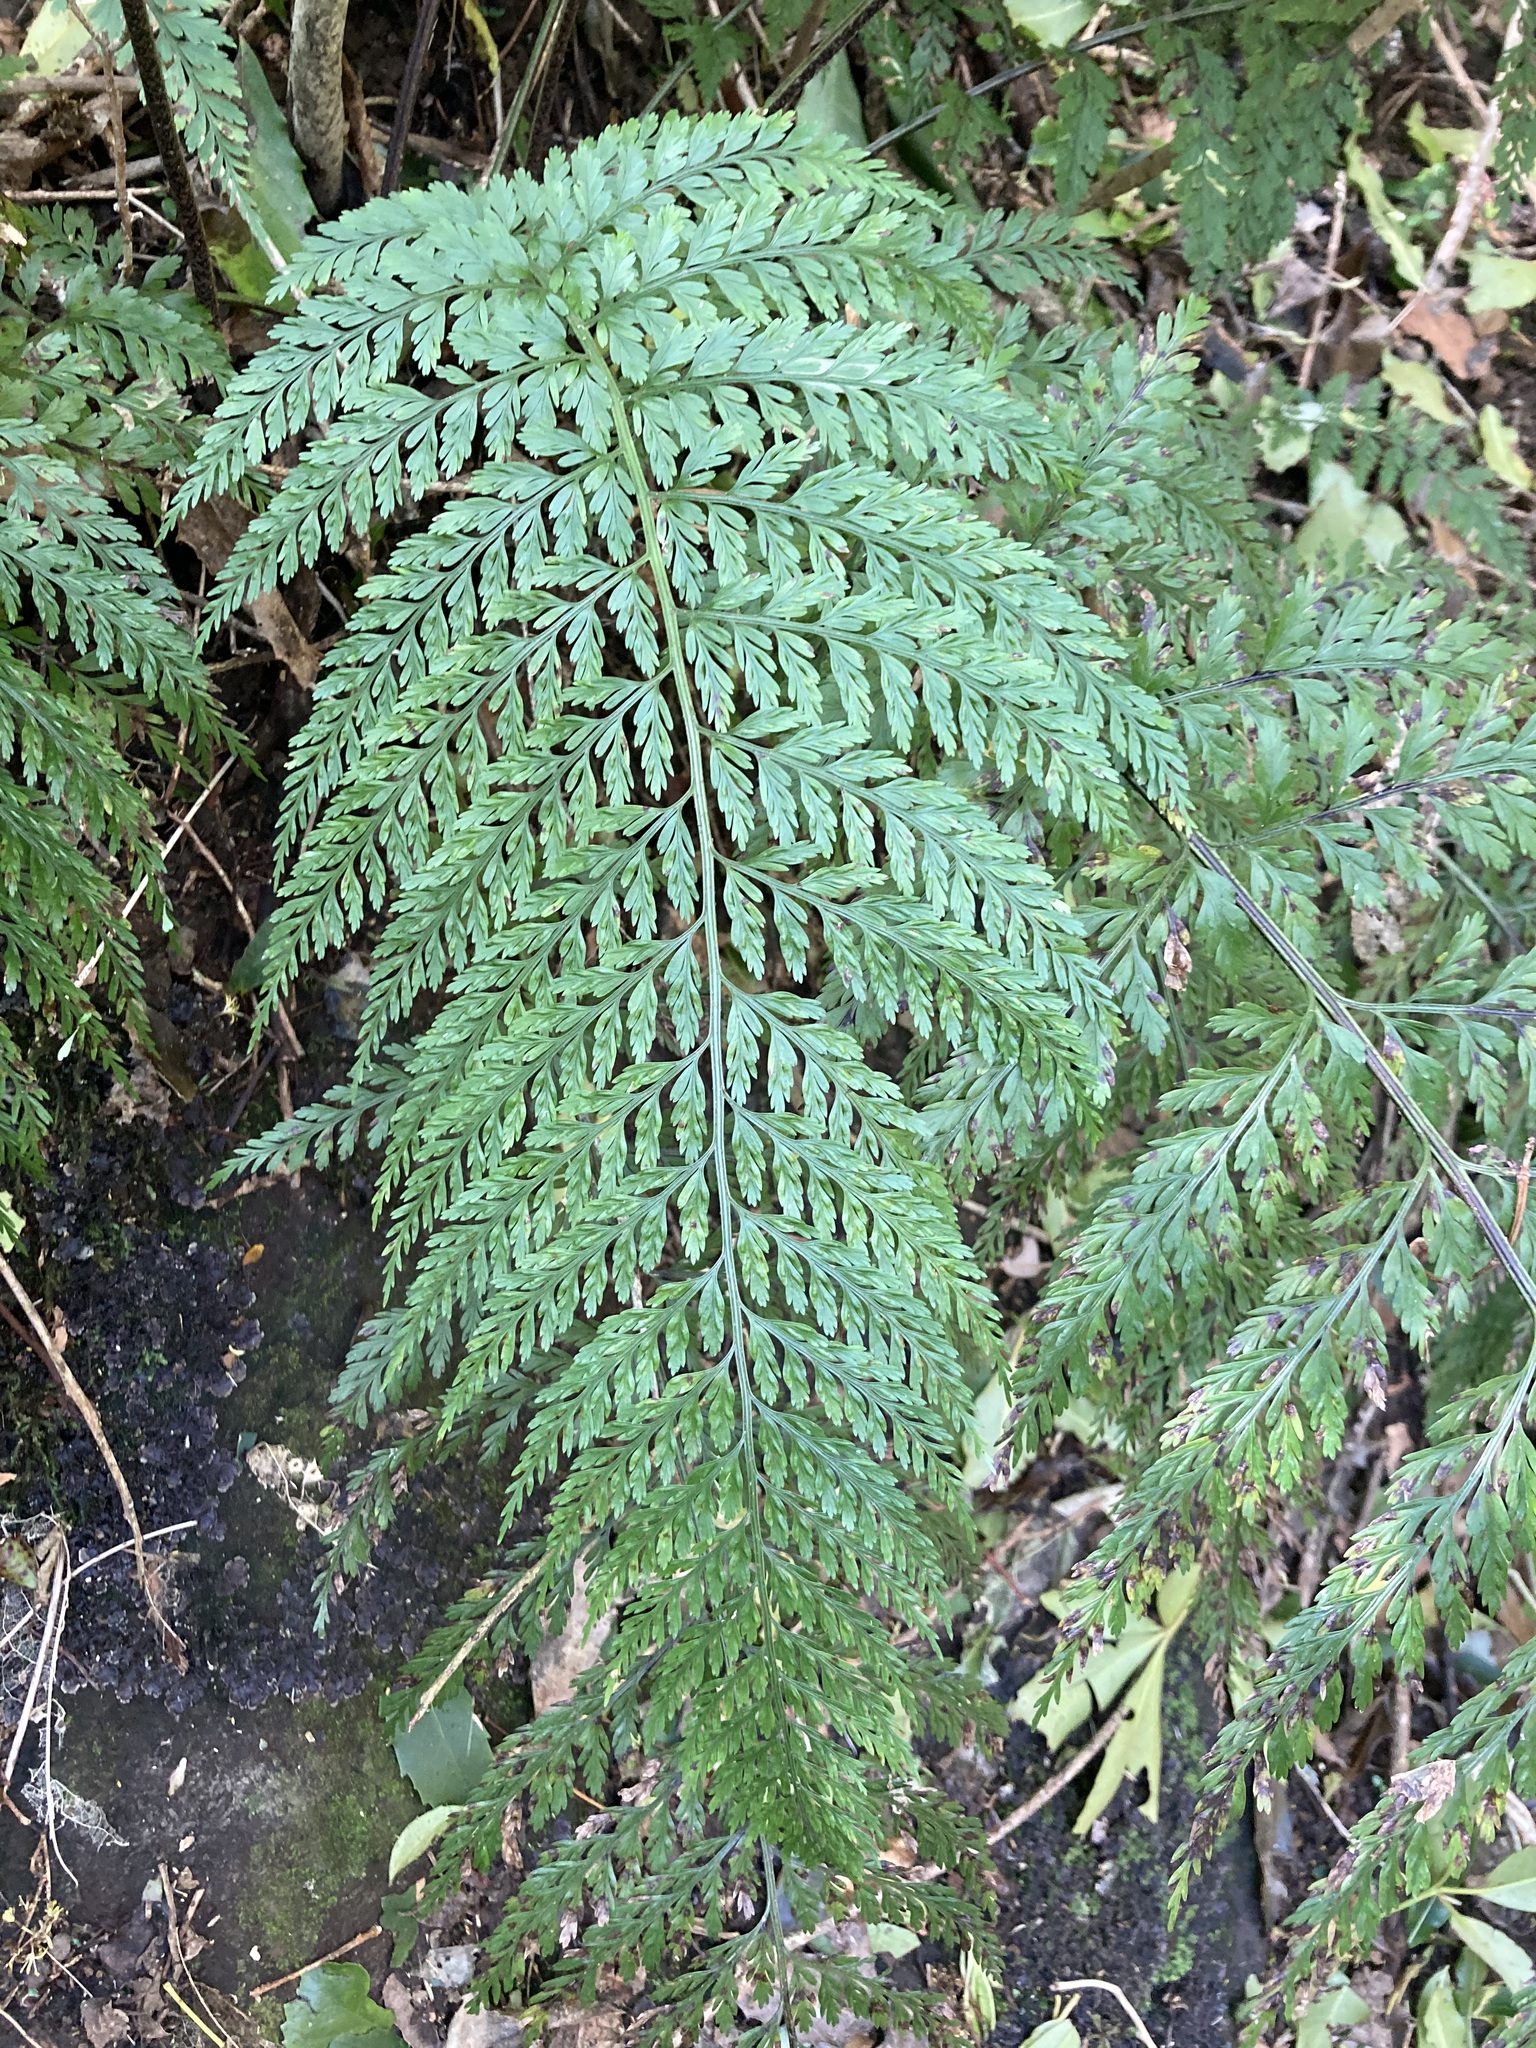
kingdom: Plantae
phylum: Tracheophyta
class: Polypodiopsida
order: Polypodiales
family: Aspleniaceae
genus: Asplenium
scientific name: Asplenium
